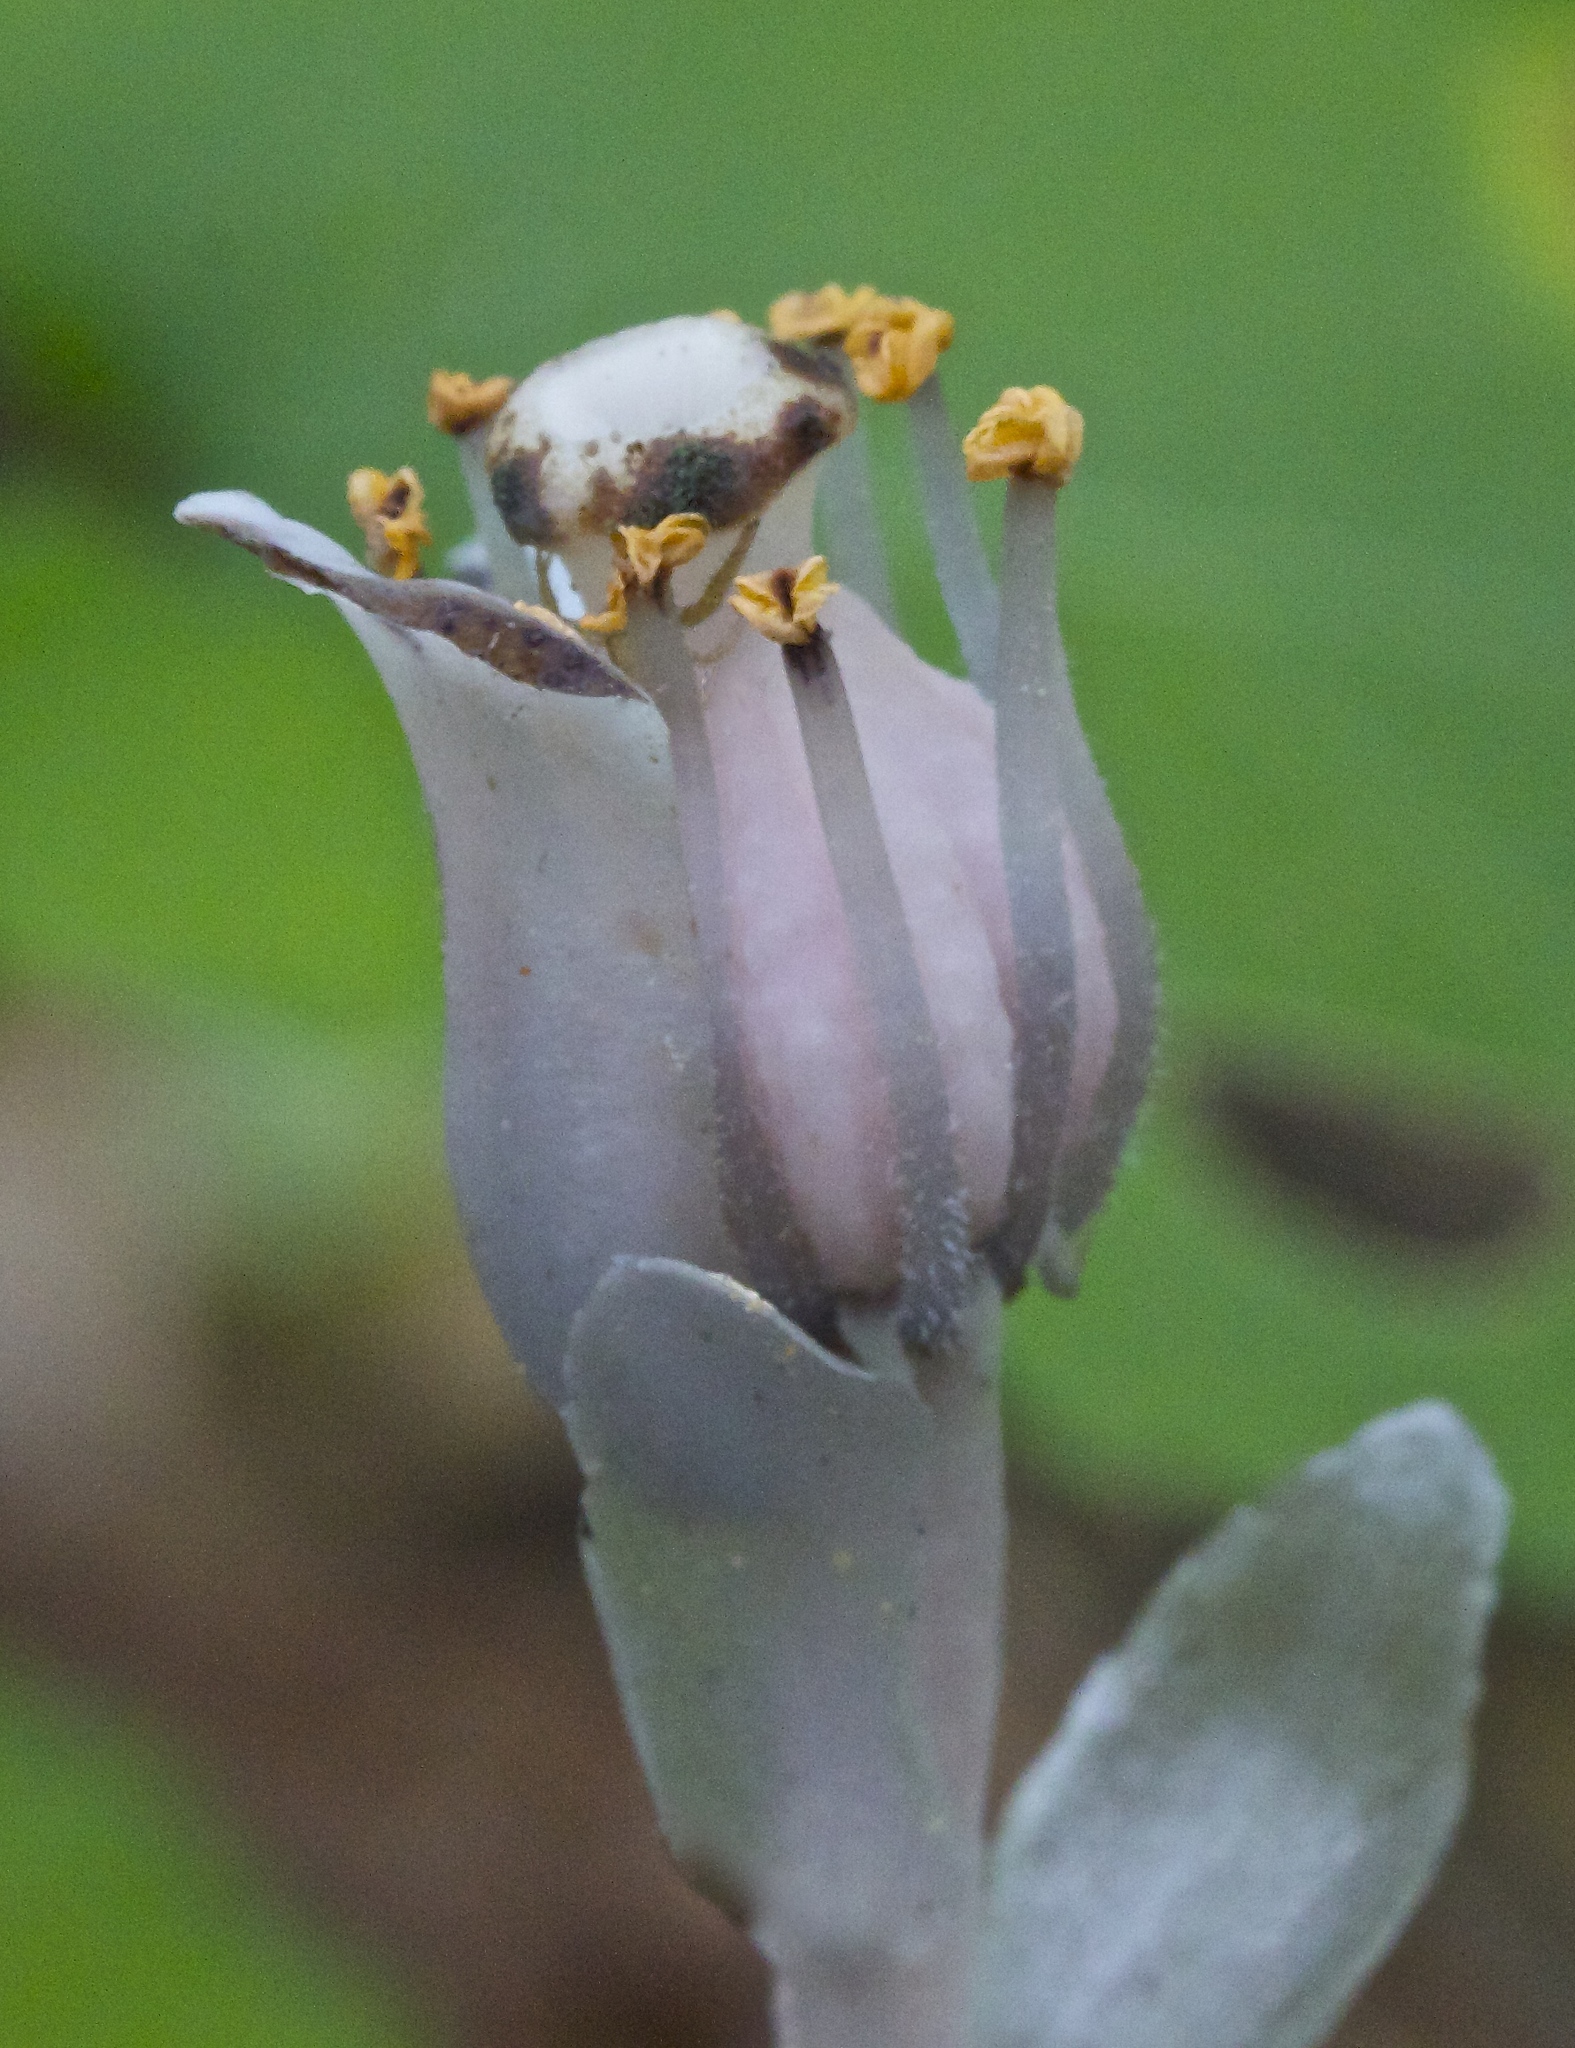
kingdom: Plantae
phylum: Tracheophyta
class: Magnoliopsida
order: Ericales
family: Ericaceae
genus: Monotropa
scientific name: Monotropa uniflora
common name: Convulsion root
